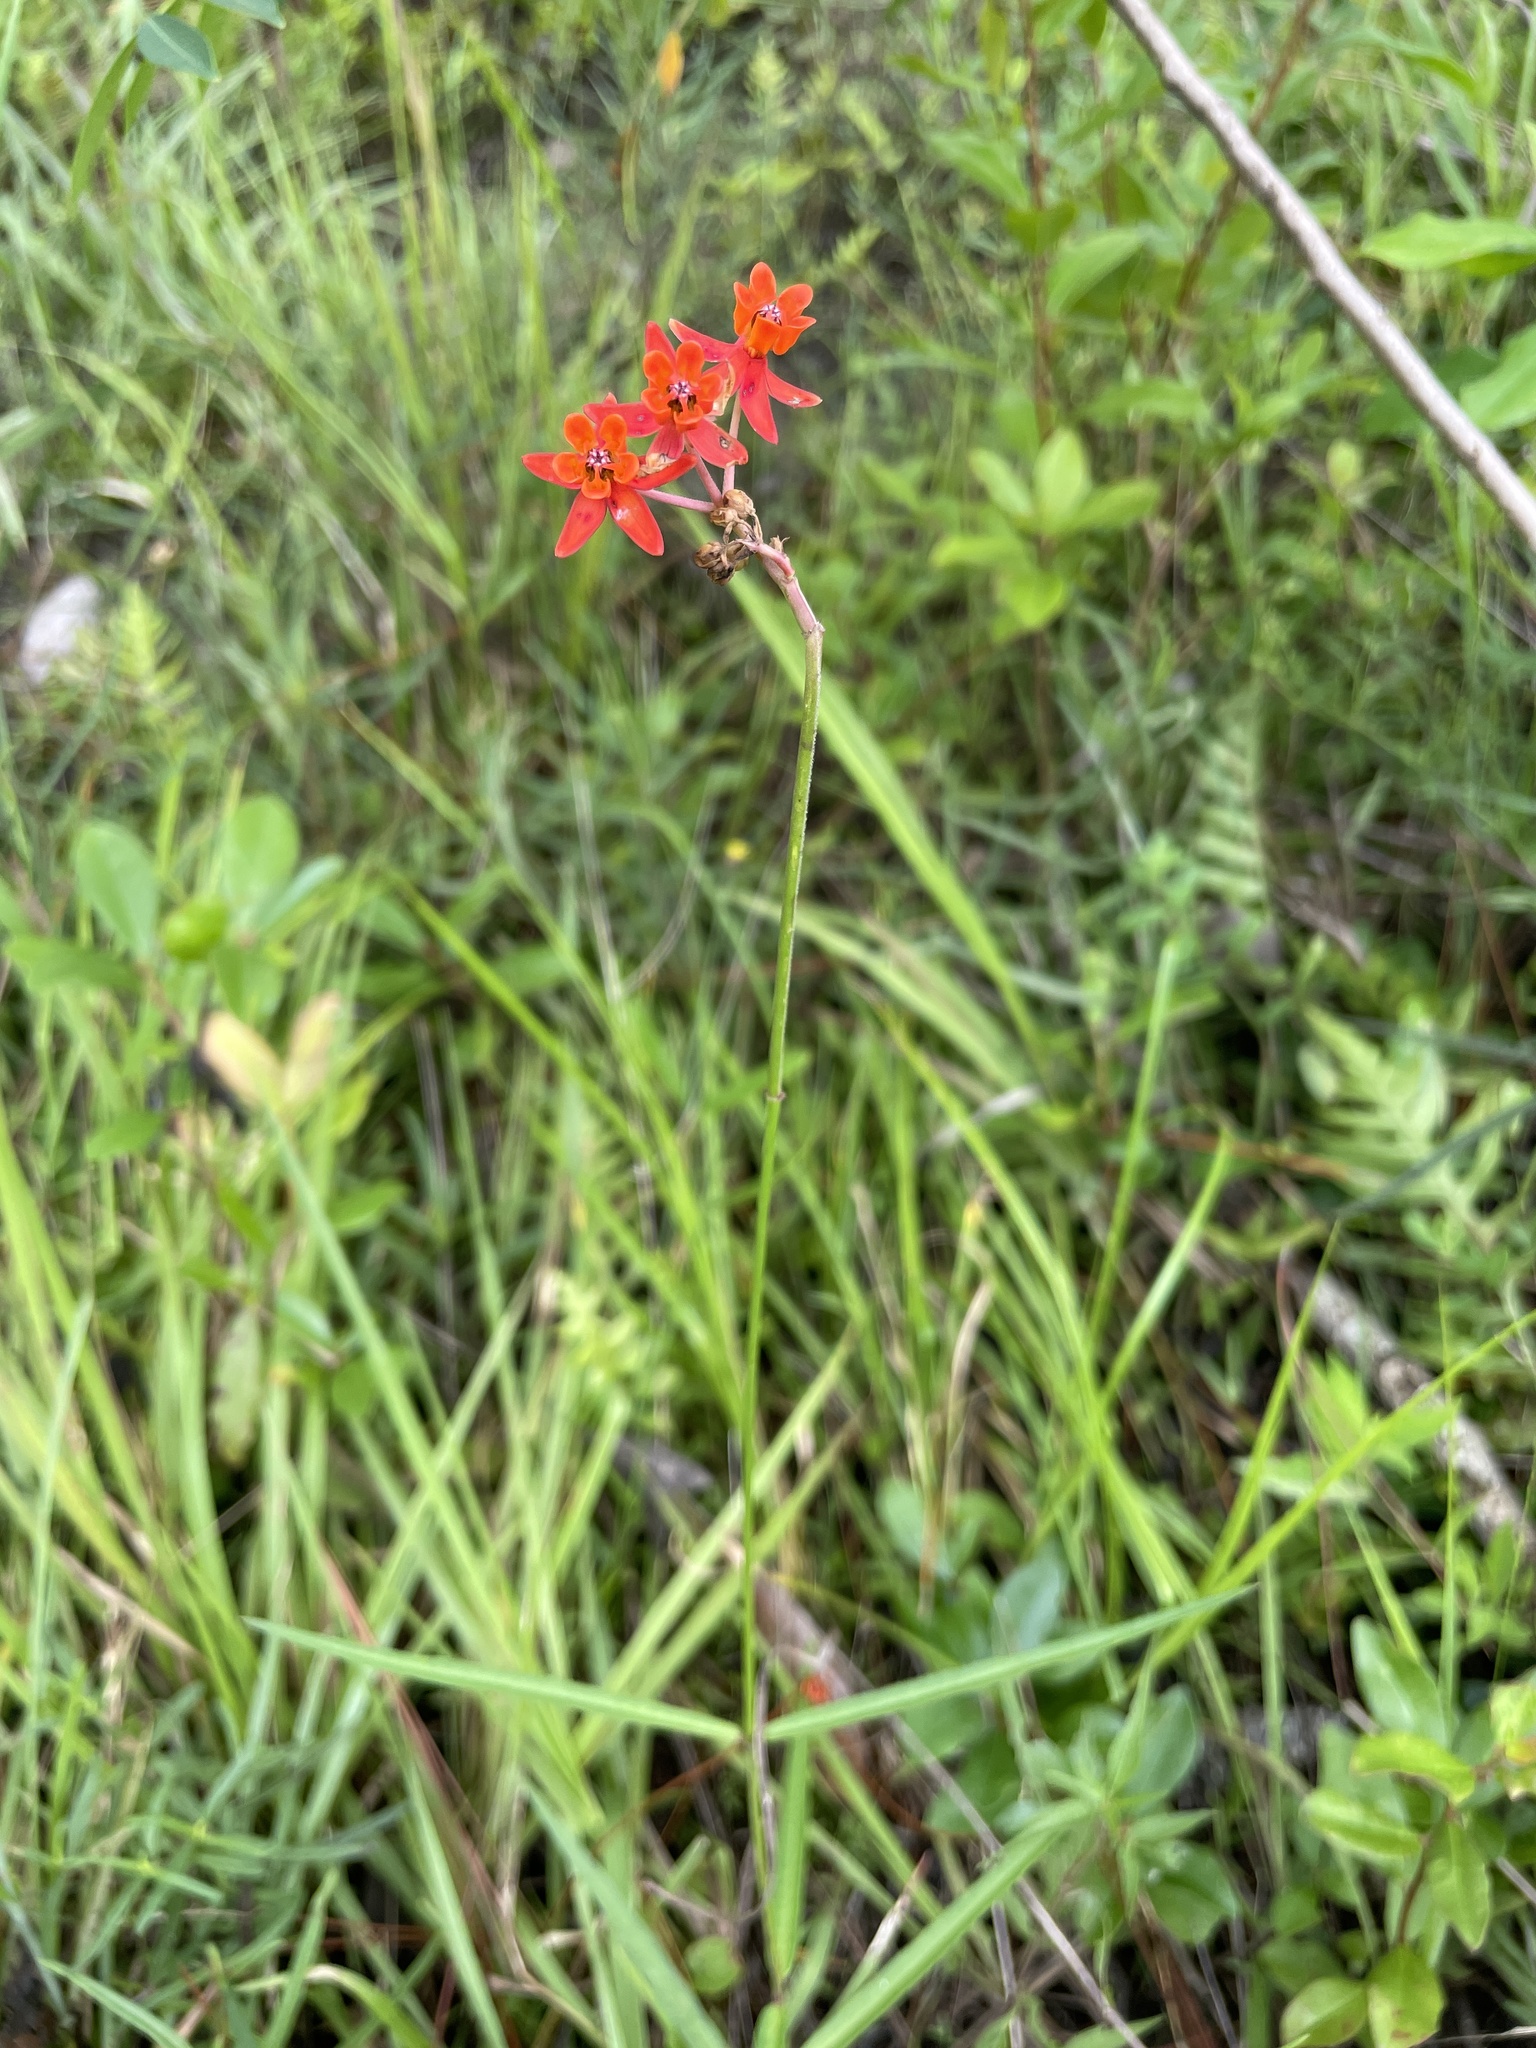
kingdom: Plantae
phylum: Tracheophyta
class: Magnoliopsida
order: Gentianales
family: Apocynaceae
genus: Asclepias
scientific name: Asclepias lanceolata
